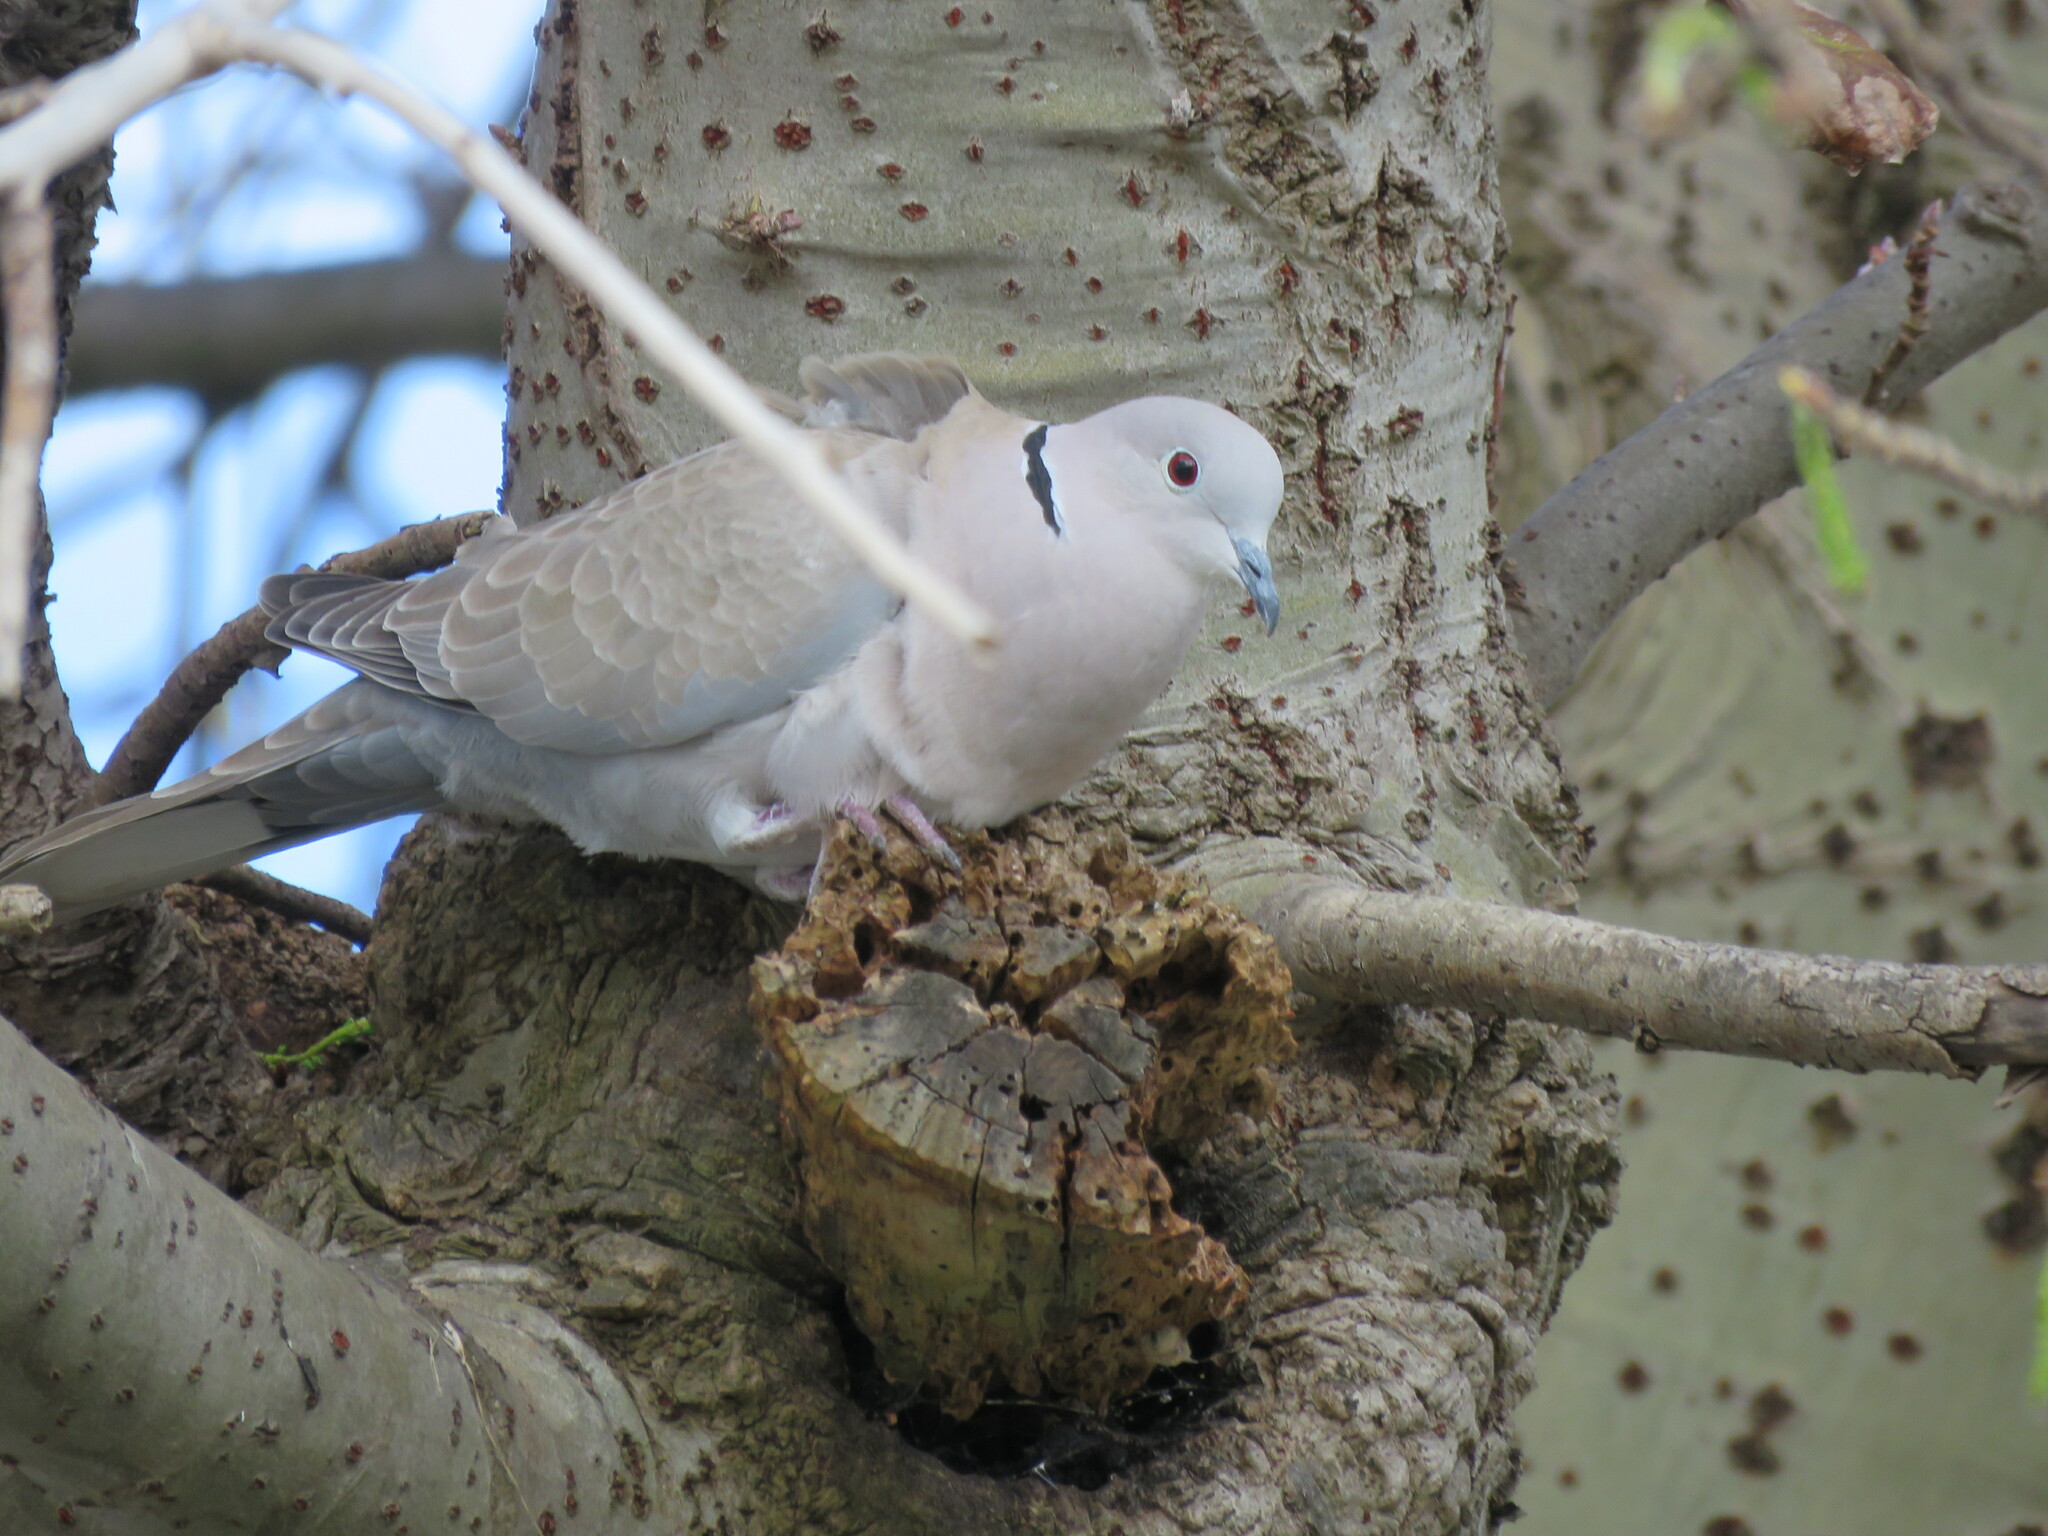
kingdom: Animalia
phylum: Chordata
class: Aves
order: Columbiformes
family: Columbidae
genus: Streptopelia
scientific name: Streptopelia decaocto
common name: Eurasian collared dove
